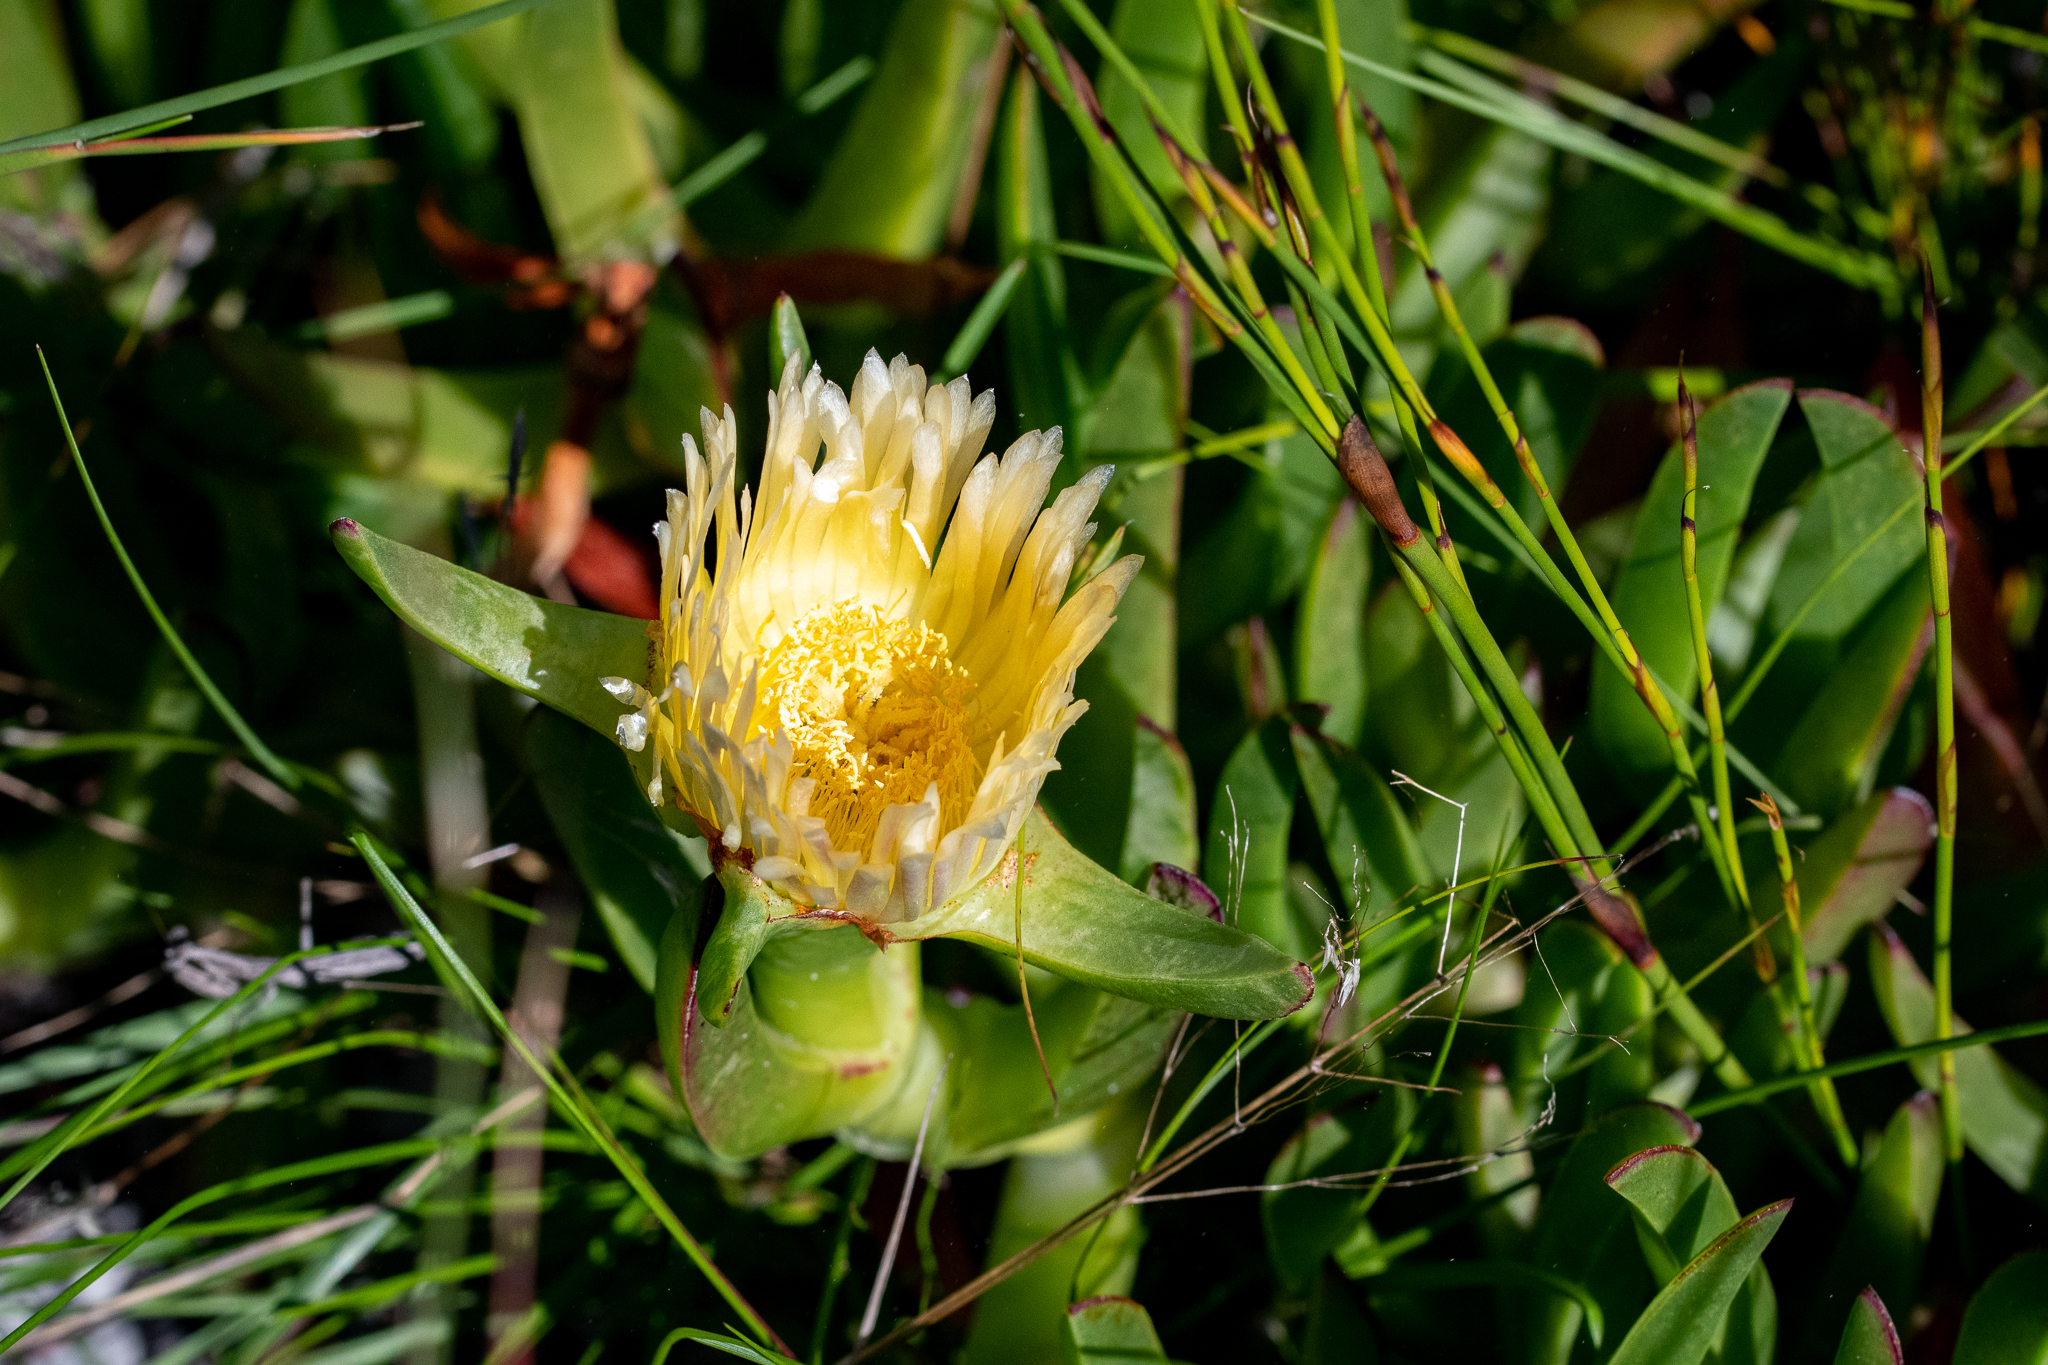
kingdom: Plantae
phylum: Tracheophyta
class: Magnoliopsida
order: Caryophyllales
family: Aizoaceae
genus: Carpobrotus
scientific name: Carpobrotus edulis
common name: Hottentot-fig
